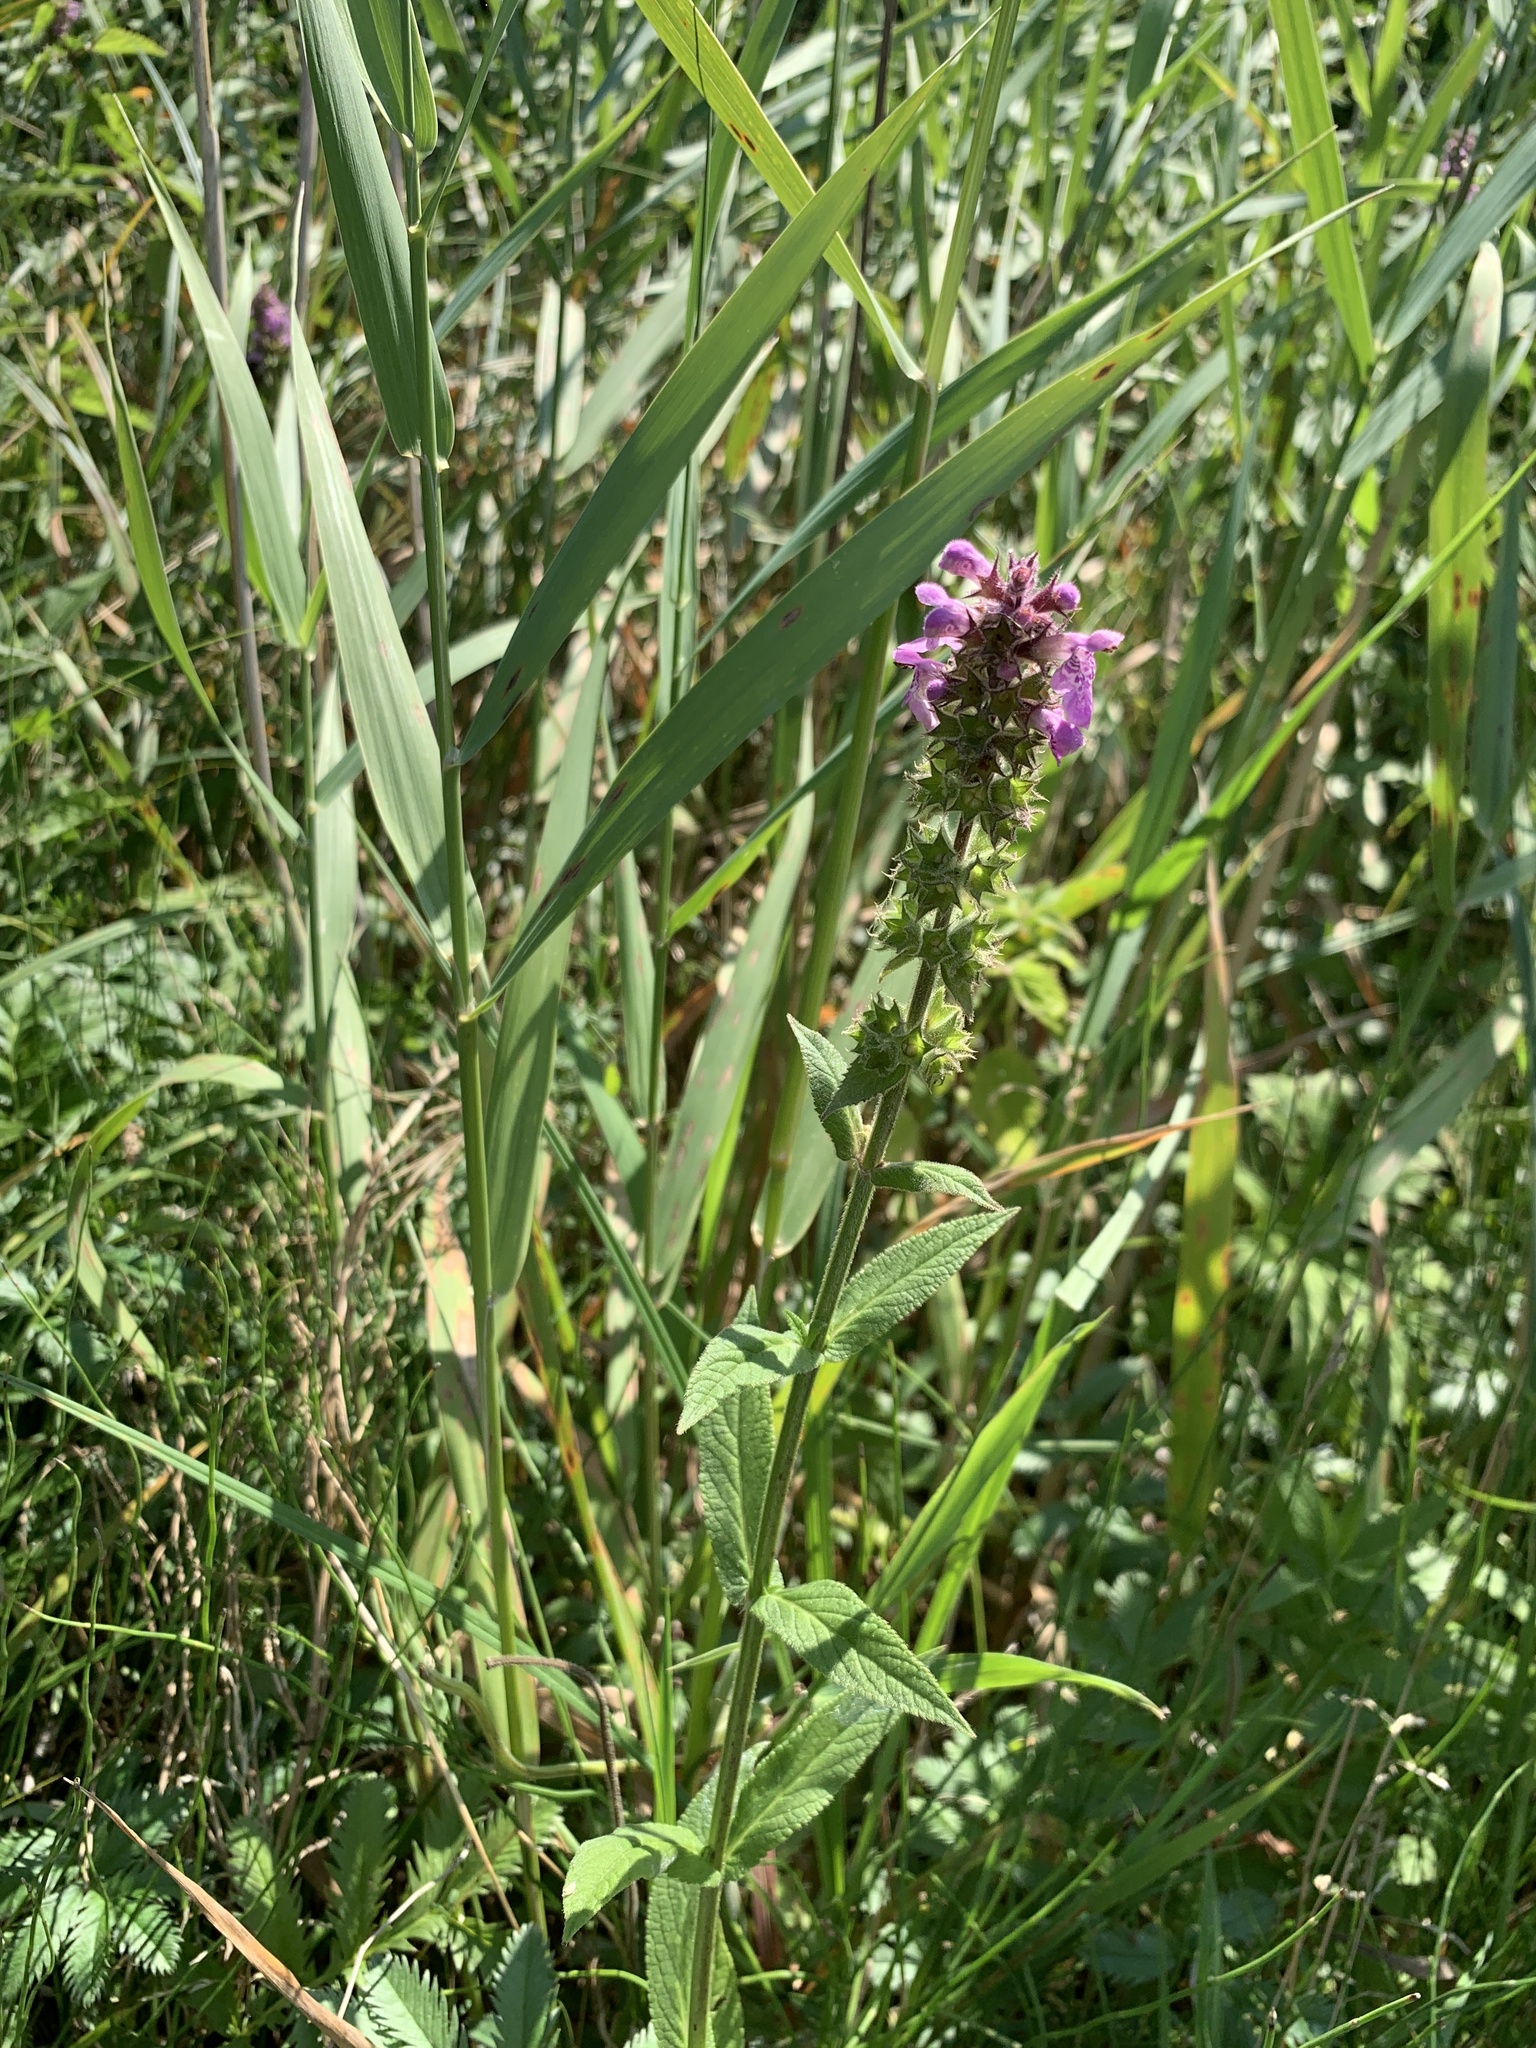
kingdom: Plantae
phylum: Tracheophyta
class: Magnoliopsida
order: Lamiales
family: Lamiaceae
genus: Stachys
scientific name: Stachys palustris
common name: Marsh woundwort
